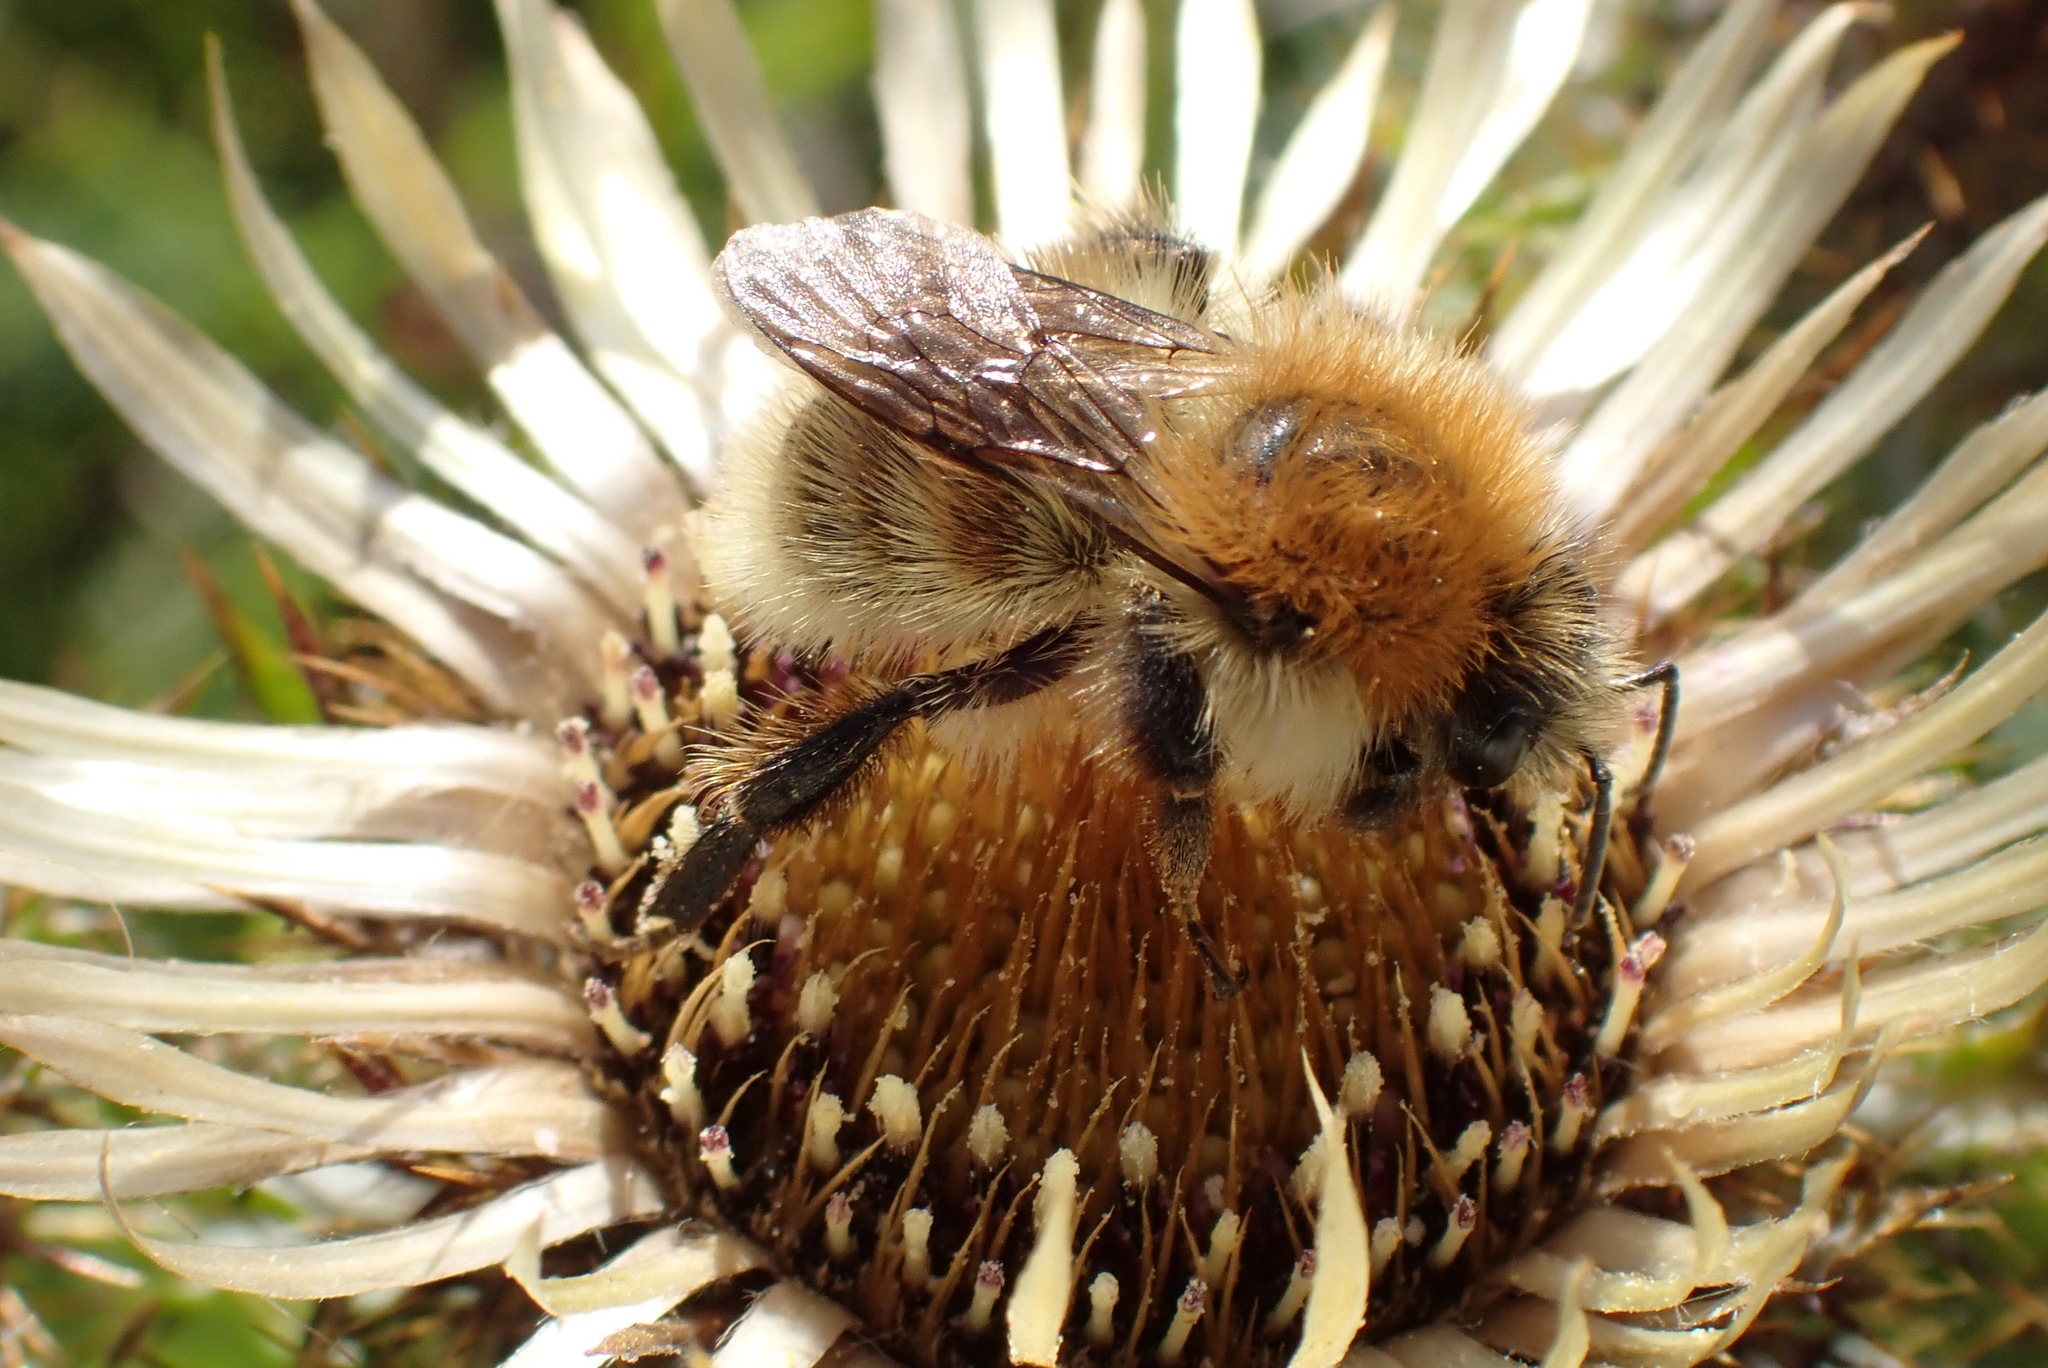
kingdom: Animalia
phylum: Arthropoda
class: Insecta
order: Hymenoptera
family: Apidae
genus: Bombus
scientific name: Bombus pascuorum
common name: Common carder bee
